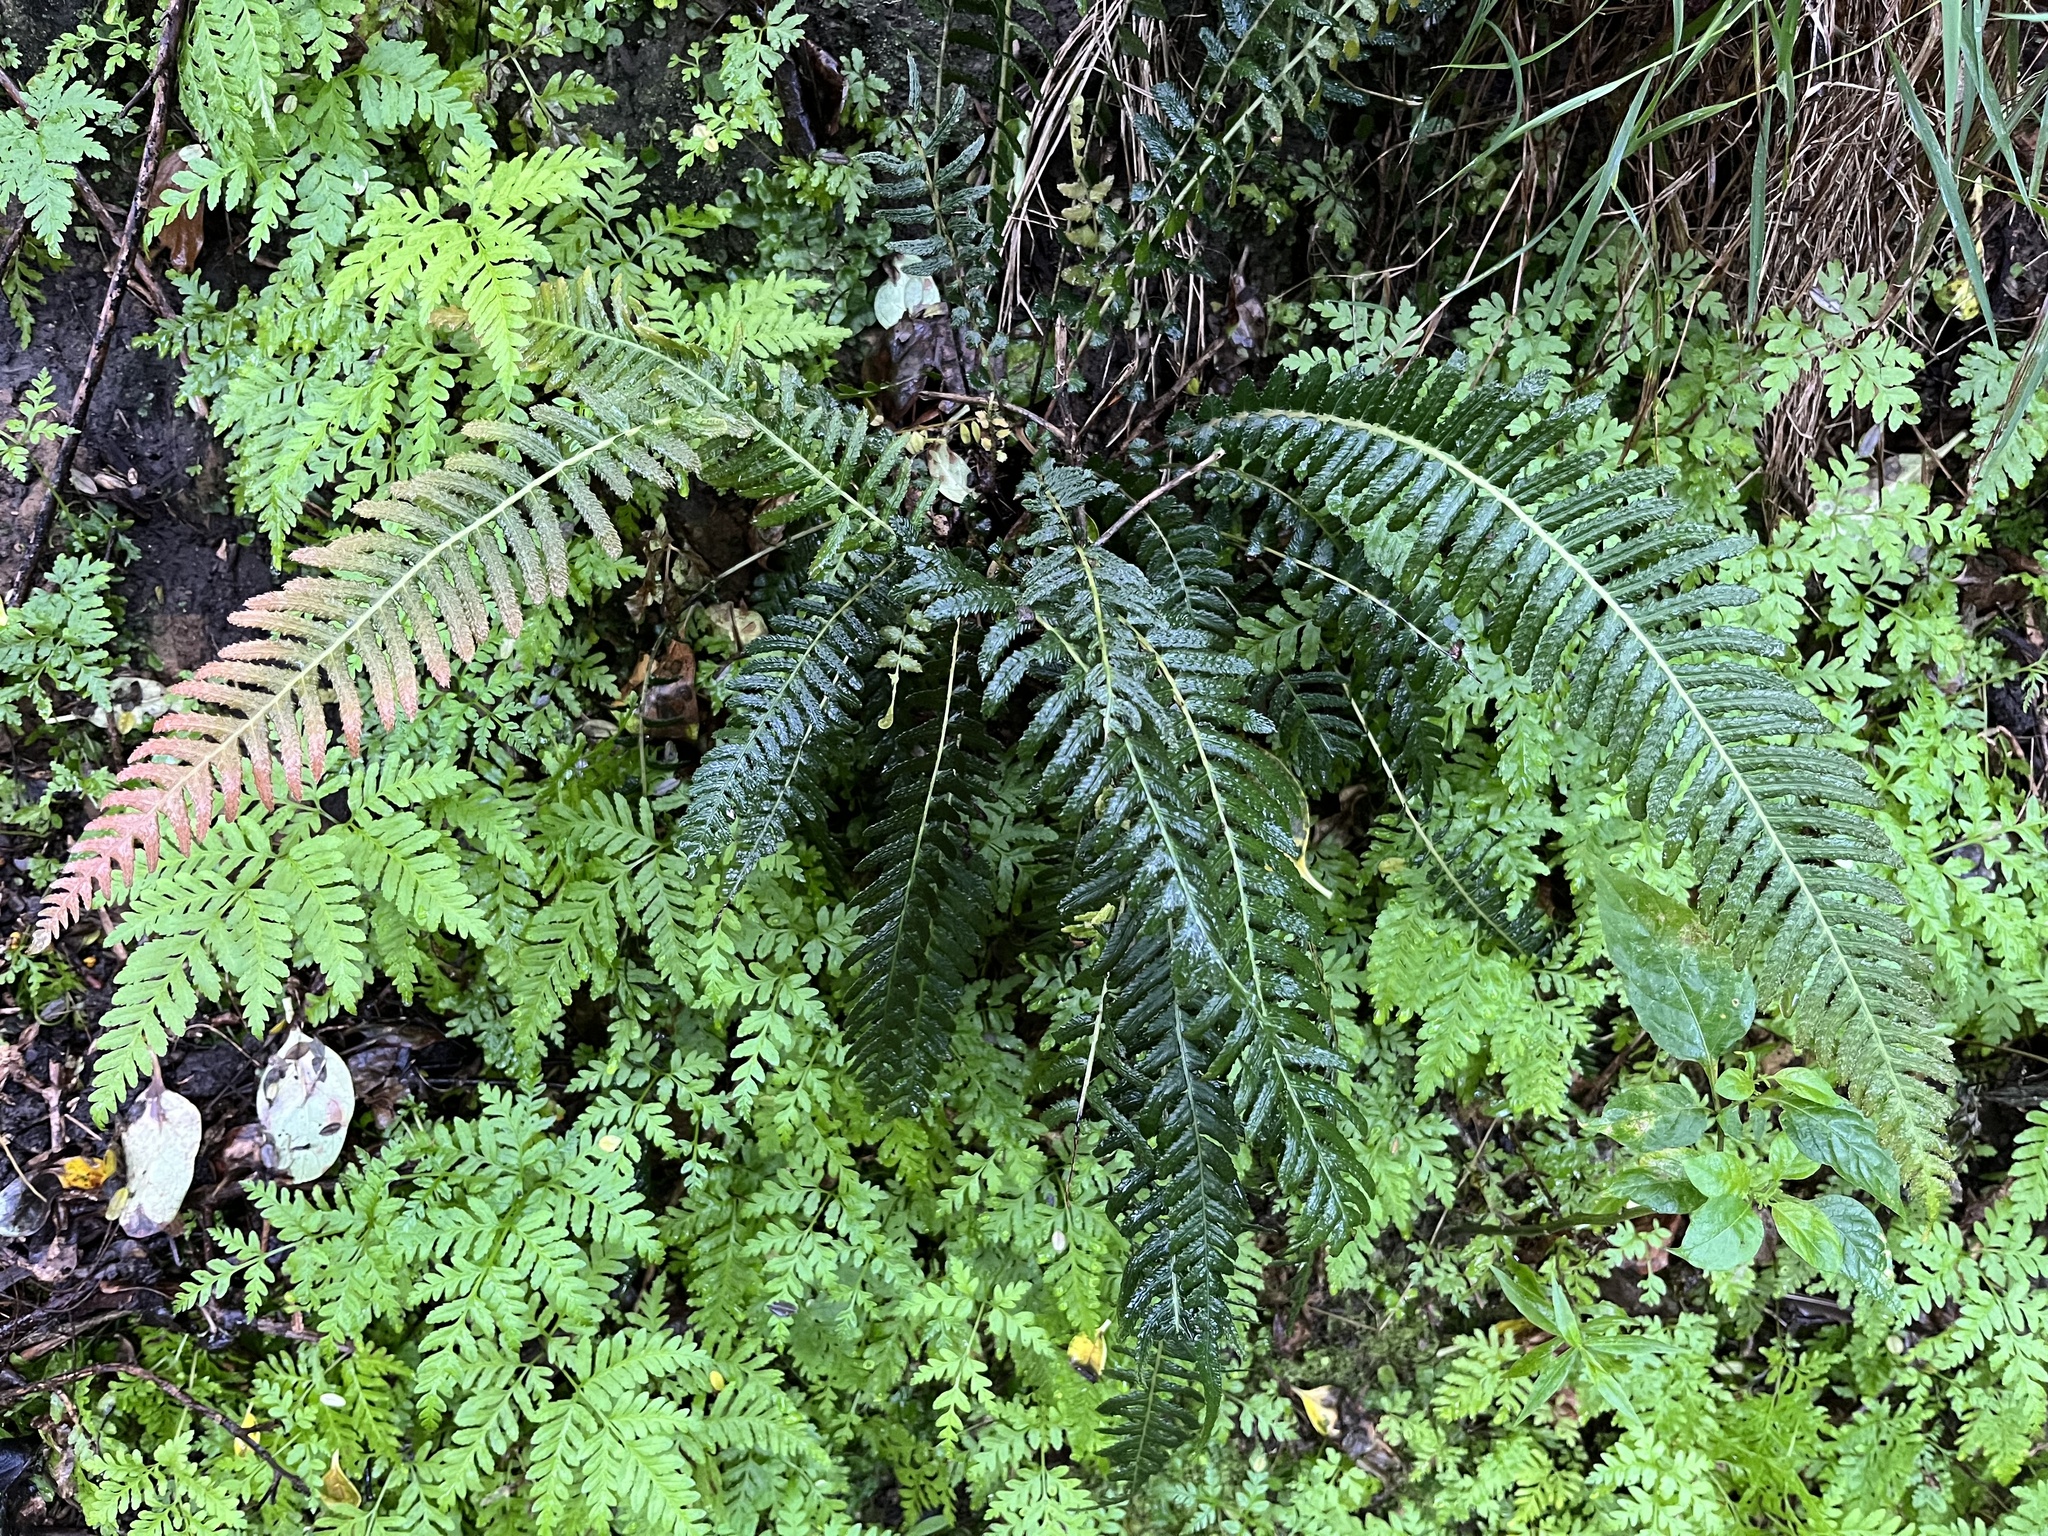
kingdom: Plantae
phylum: Tracheophyta
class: Polypodiopsida
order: Polypodiales
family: Blechnaceae
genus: Doodia
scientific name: Doodia australis
